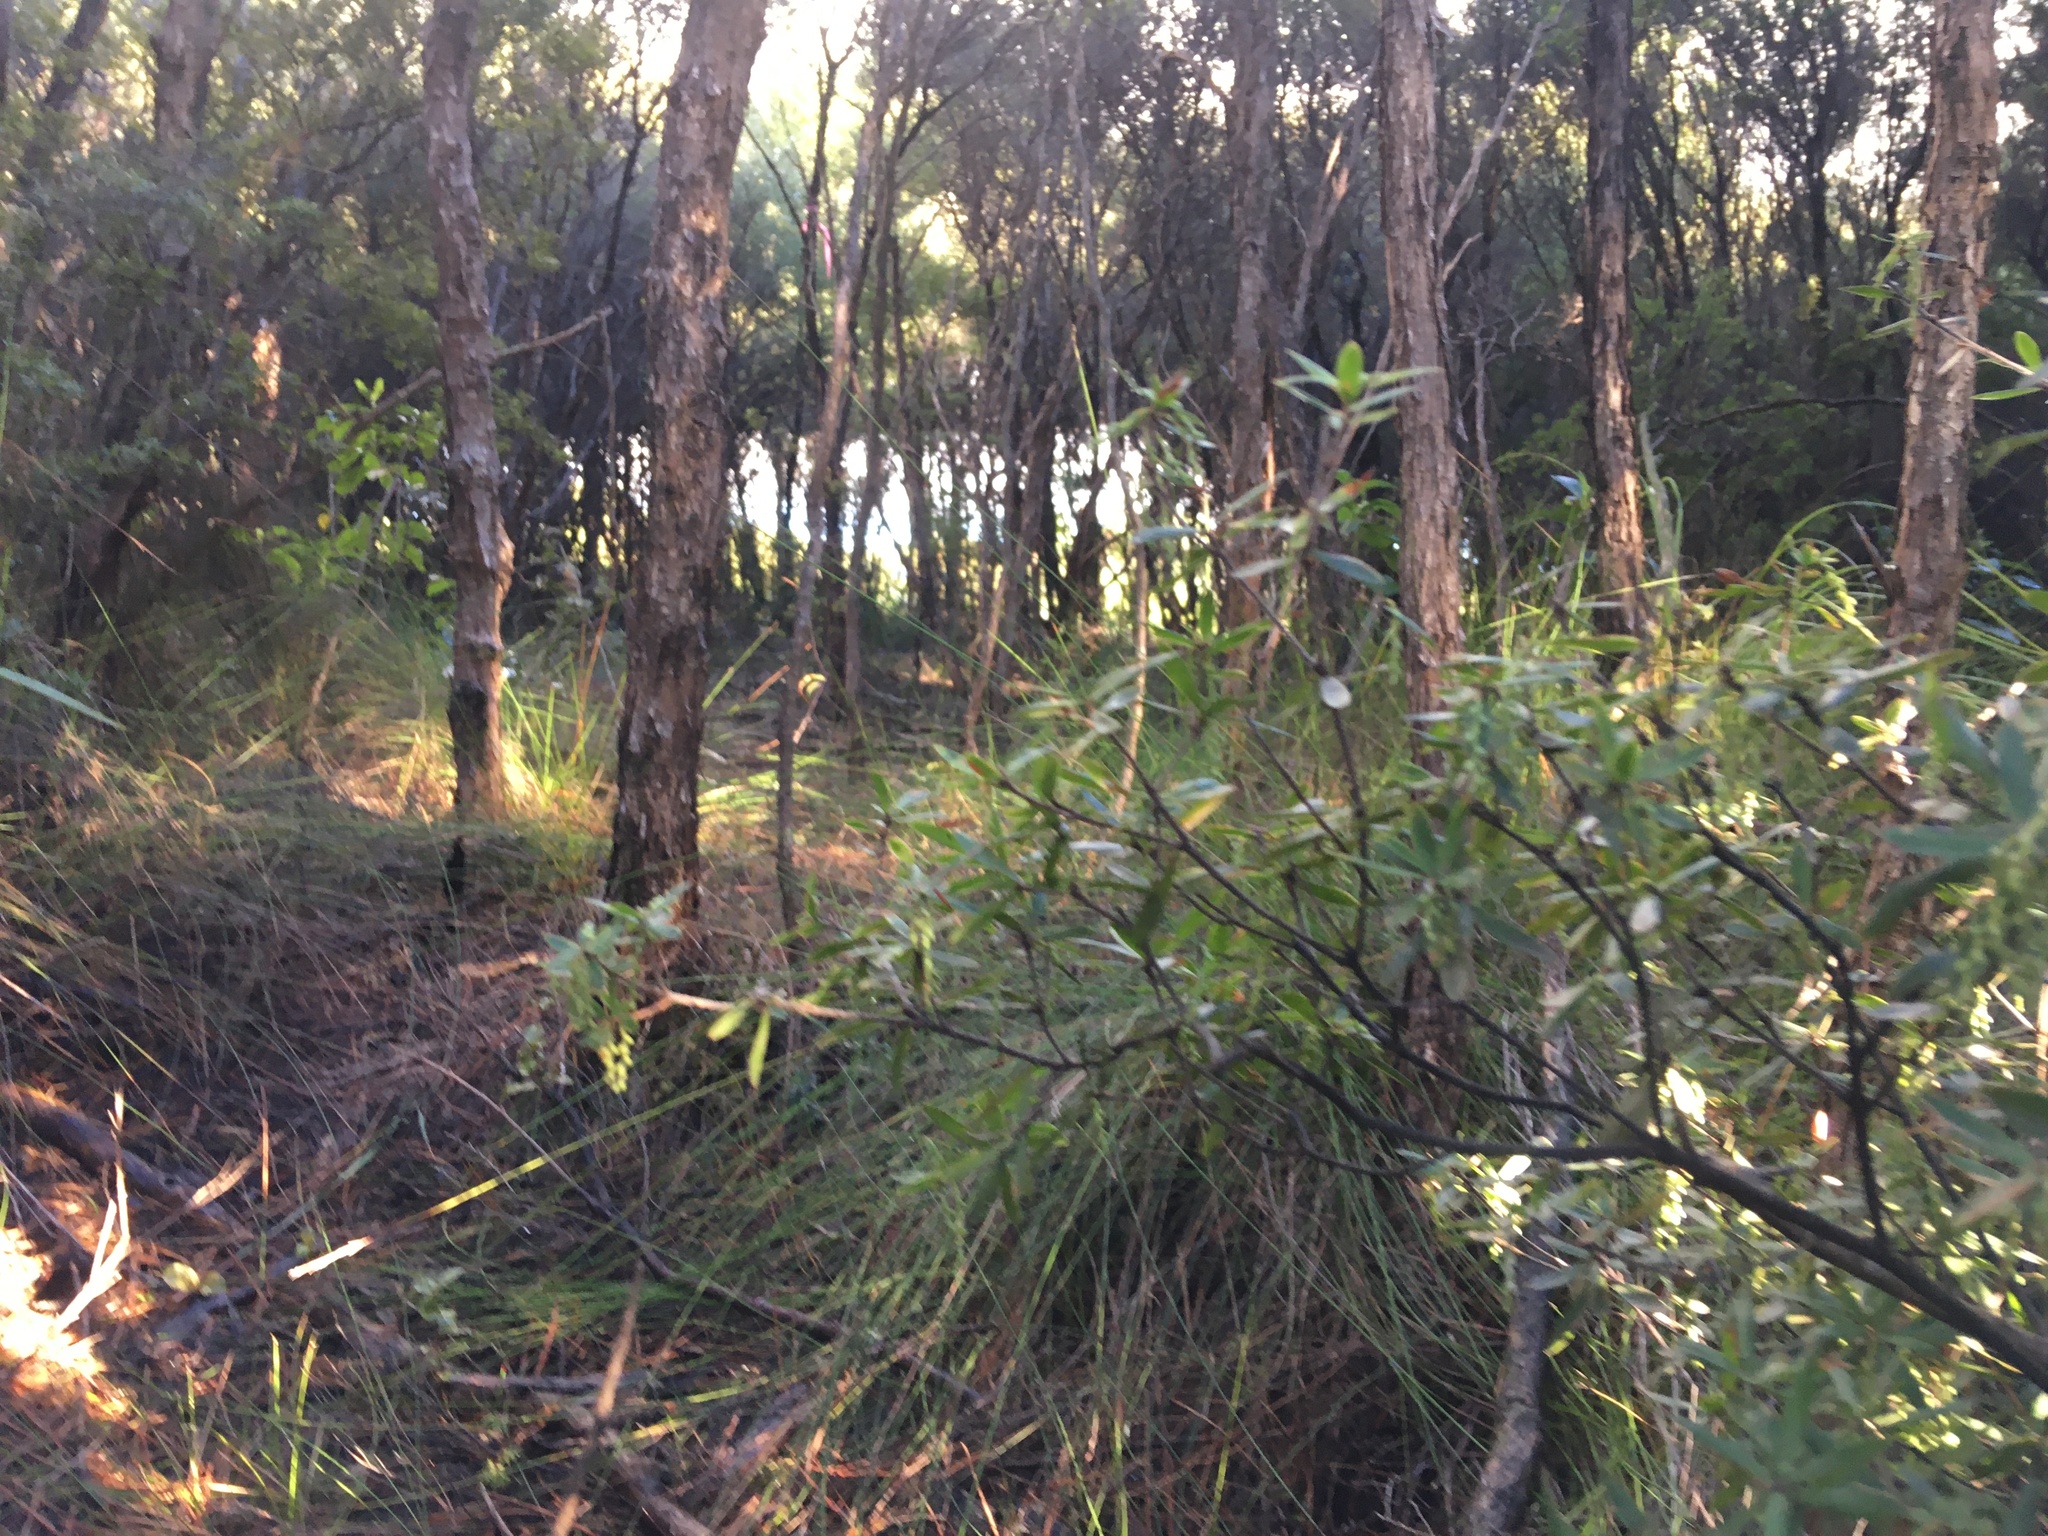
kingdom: Plantae
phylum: Tracheophyta
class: Magnoliopsida
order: Ericales
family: Ericaceae
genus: Leucopogon
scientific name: Leucopogon fasciculatus
